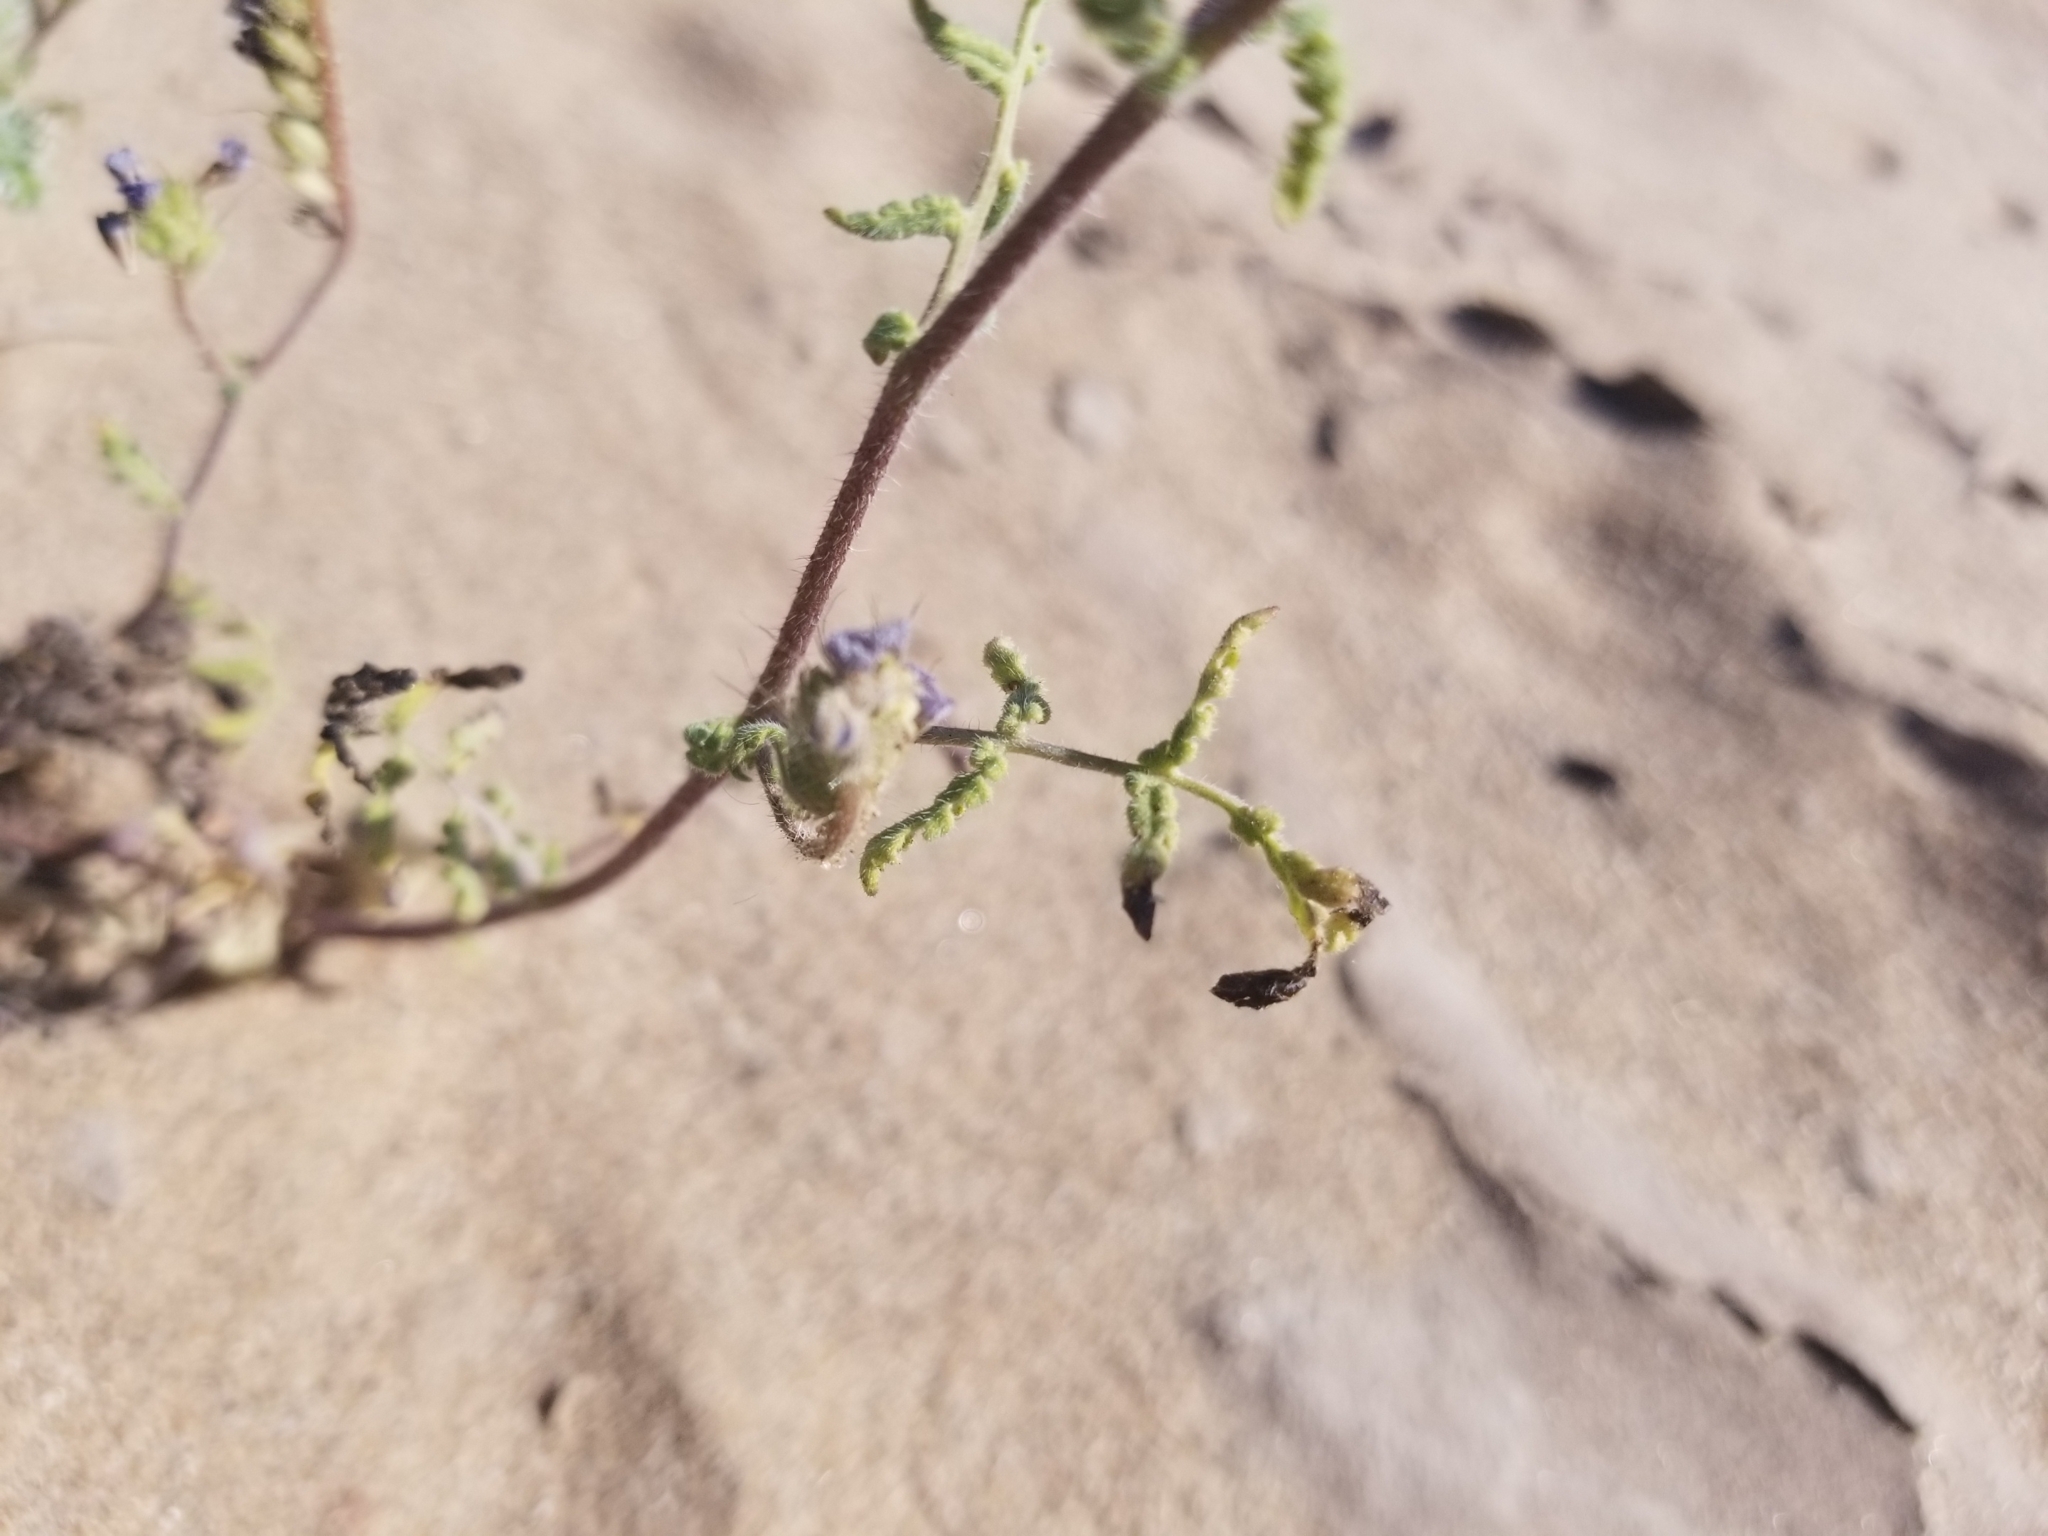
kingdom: Plantae
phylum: Tracheophyta
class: Magnoliopsida
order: Boraginales
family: Hydrophyllaceae
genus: Phacelia
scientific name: Phacelia crenulata
